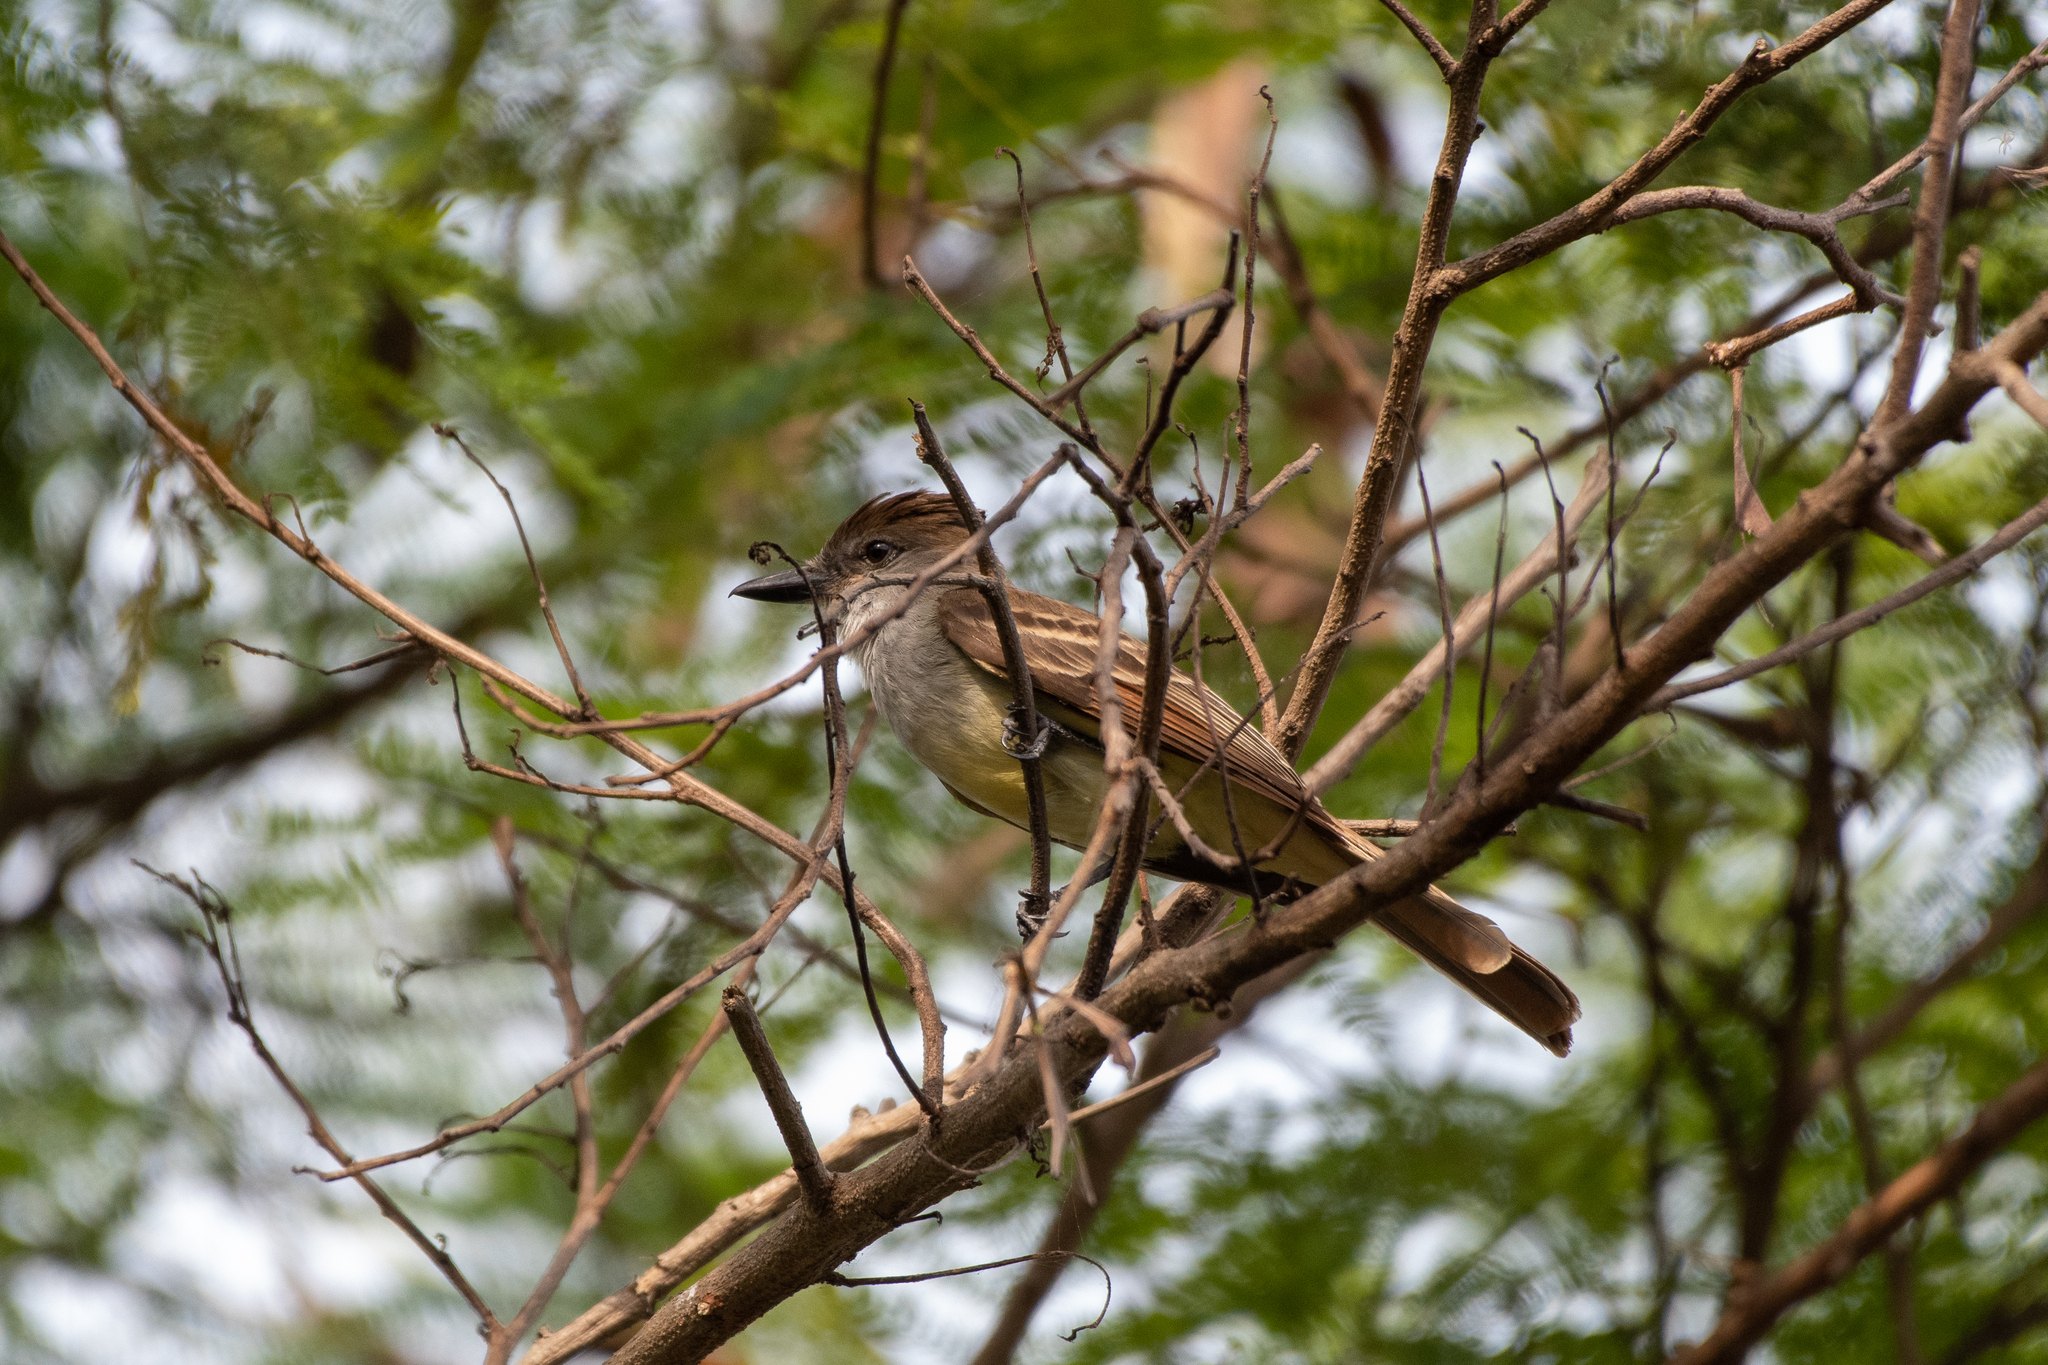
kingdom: Animalia
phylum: Chordata
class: Aves
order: Passeriformes
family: Tyrannidae
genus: Myiarchus
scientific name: Myiarchus tyrannulus
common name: Brown-crested flycatcher
